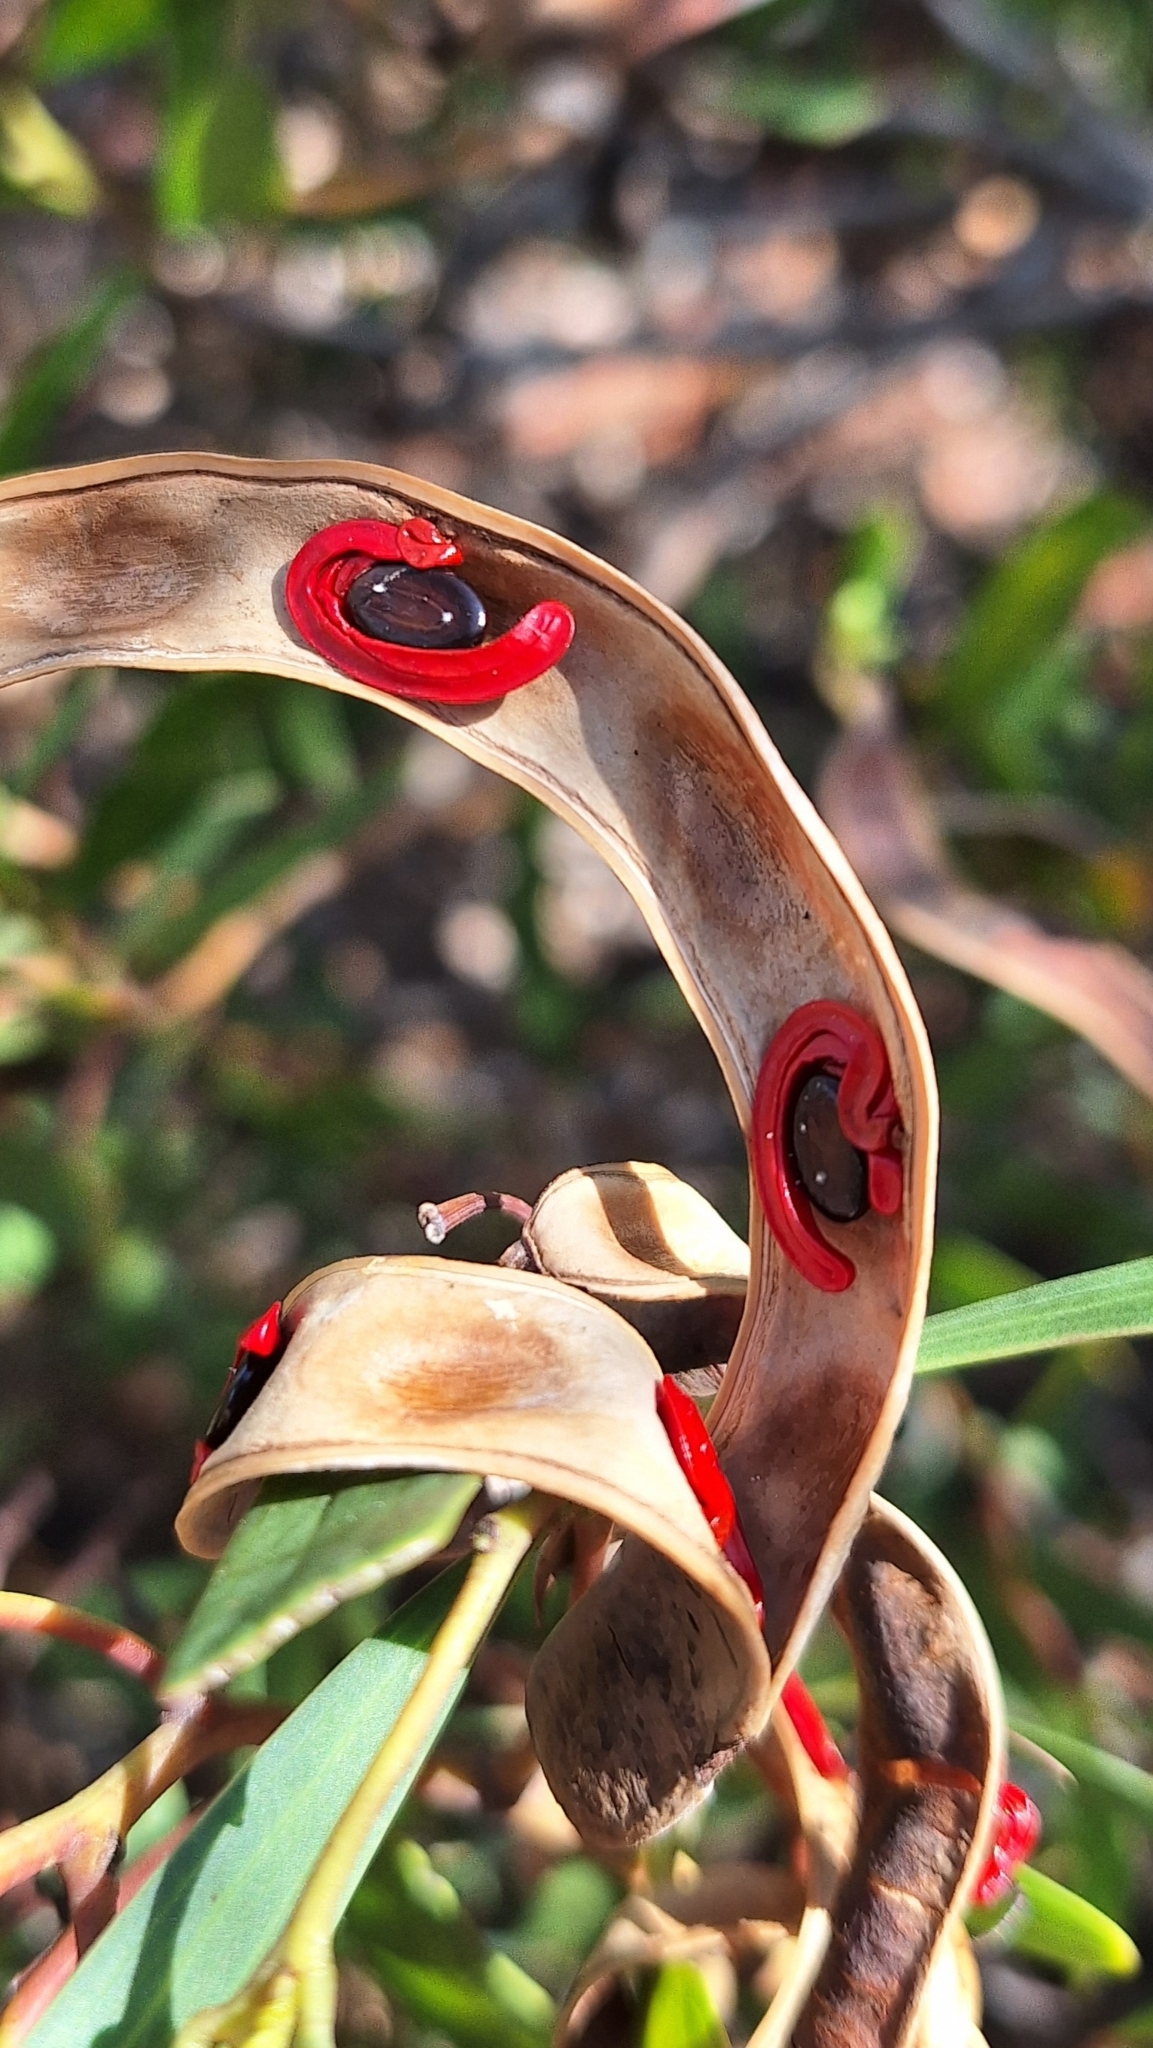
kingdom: Plantae
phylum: Tracheophyta
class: Magnoliopsida
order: Fabales
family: Fabaceae
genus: Acacia
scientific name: Acacia cyclops
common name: Coastal wattle
